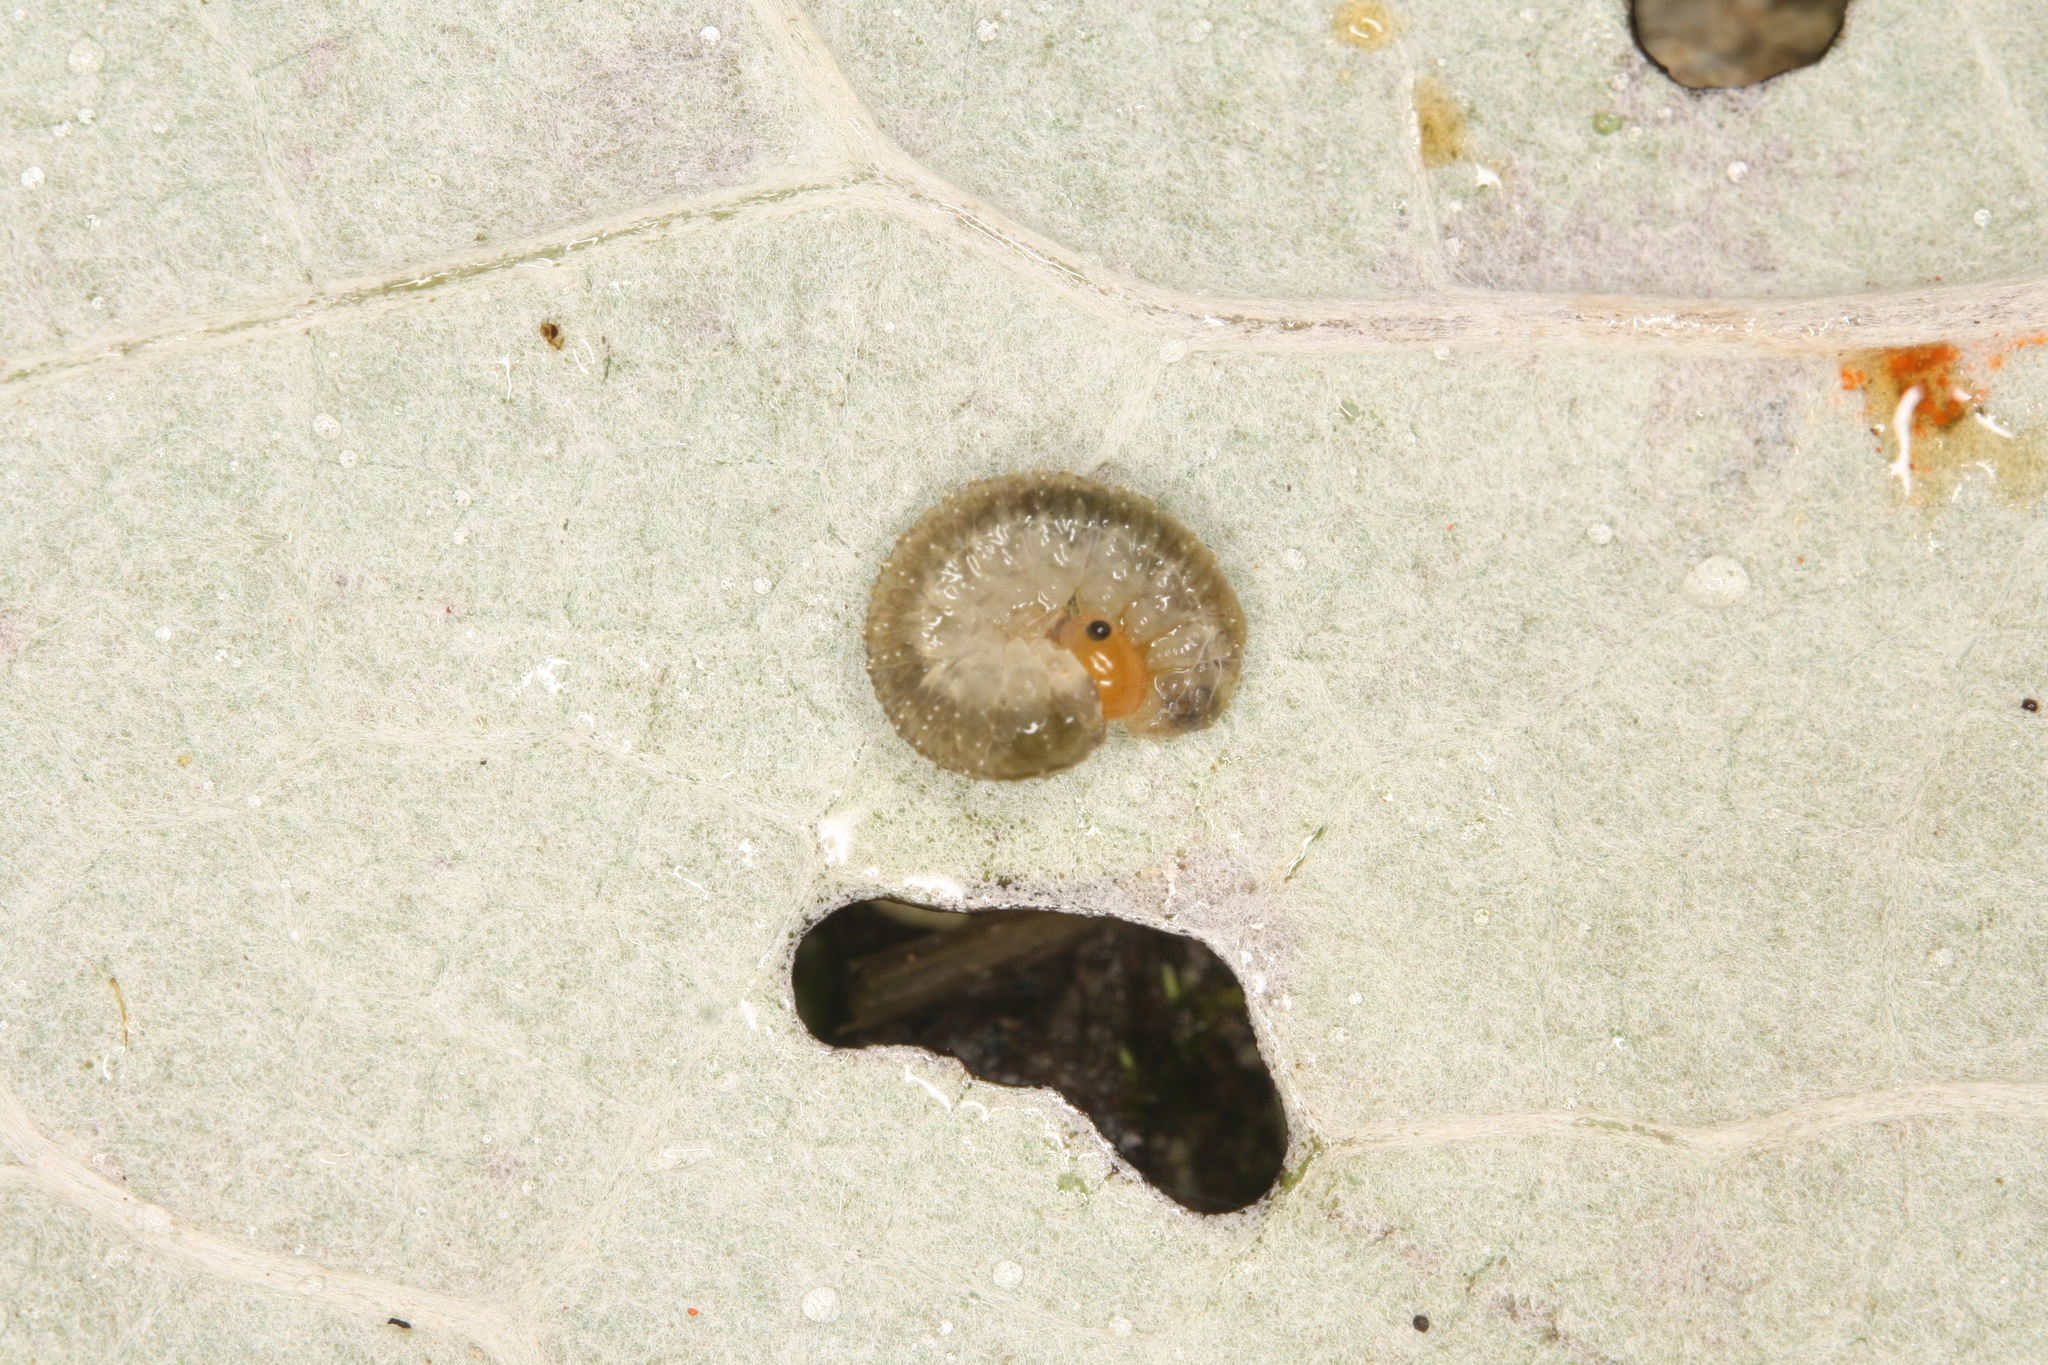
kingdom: Animalia
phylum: Arthropoda
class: Insecta
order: Hymenoptera
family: Tenthredinidae
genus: Tenthredo
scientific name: Tenthredo livida
